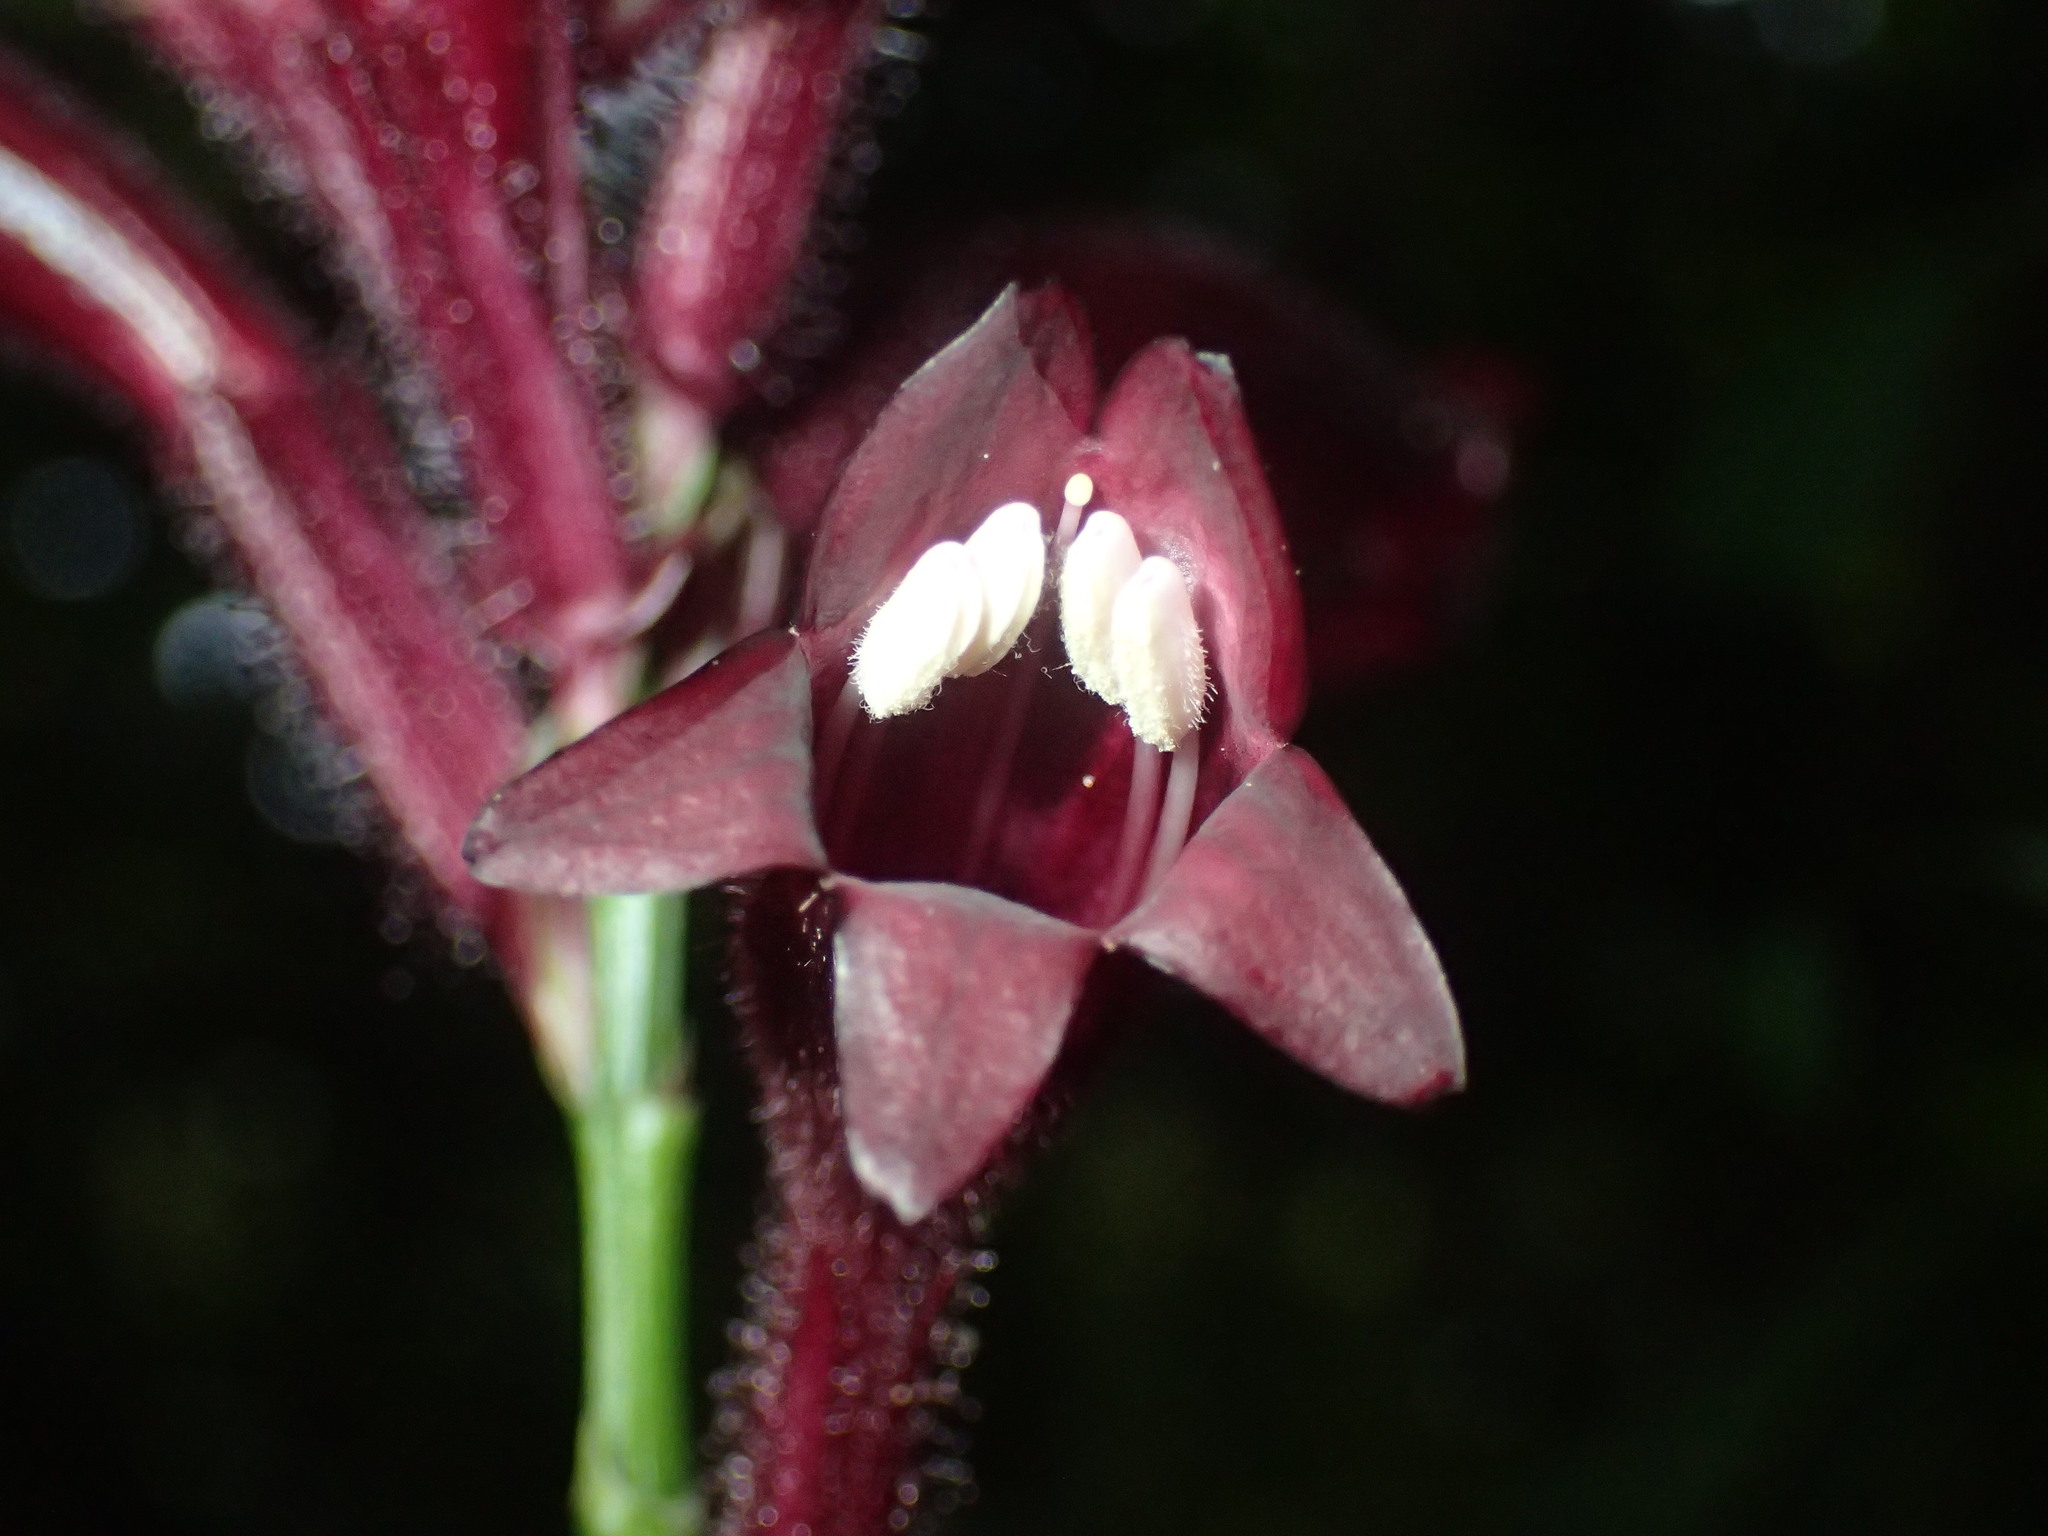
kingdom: Plantae
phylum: Tracheophyta
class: Magnoliopsida
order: Lamiales
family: Acanthaceae
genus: Whitfieldia
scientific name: Whitfieldia laurentii
